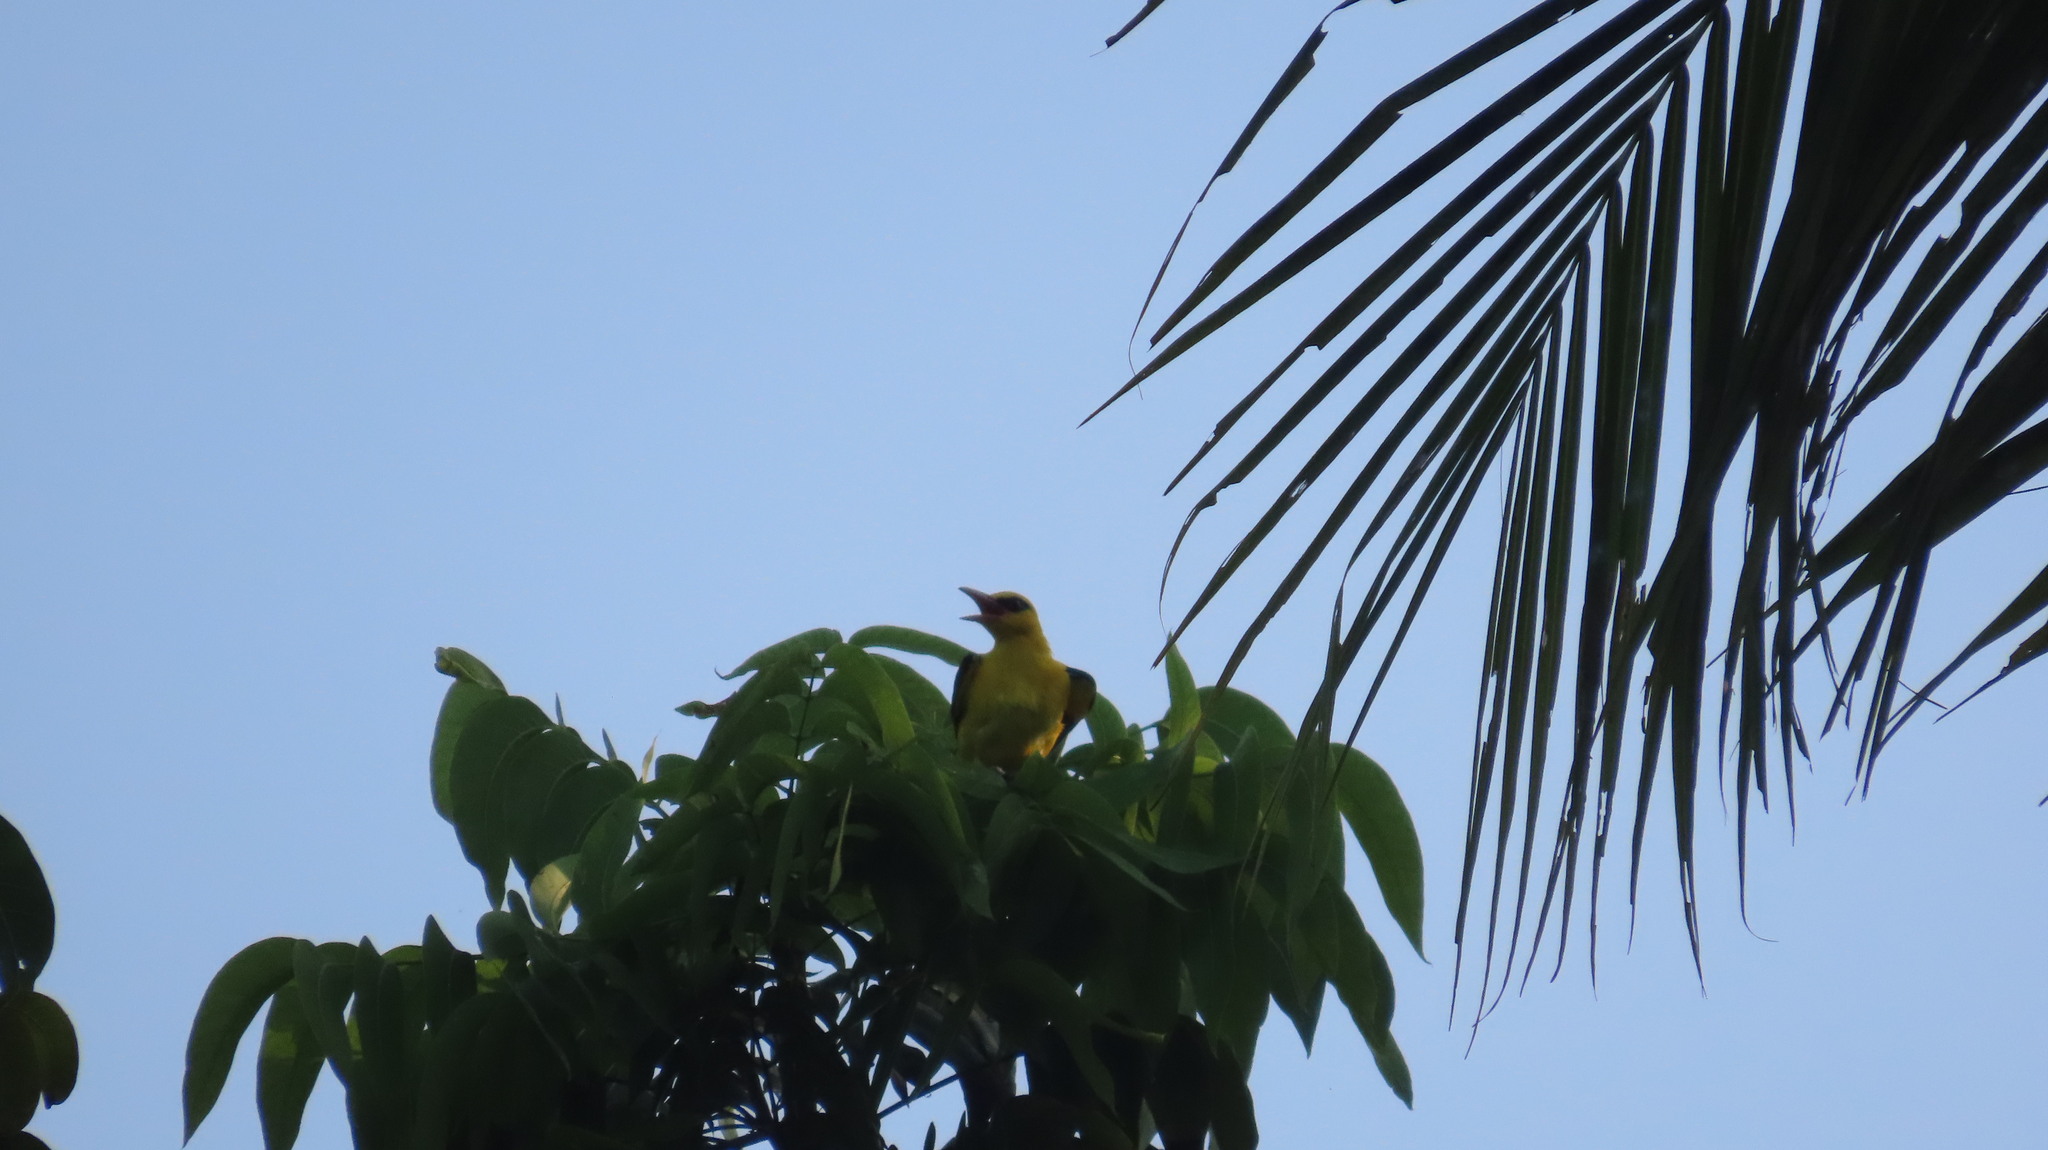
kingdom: Animalia
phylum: Chordata
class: Aves
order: Passeriformes
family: Oriolidae
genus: Oriolus
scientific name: Oriolus kundoo
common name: Indian golden oriole
